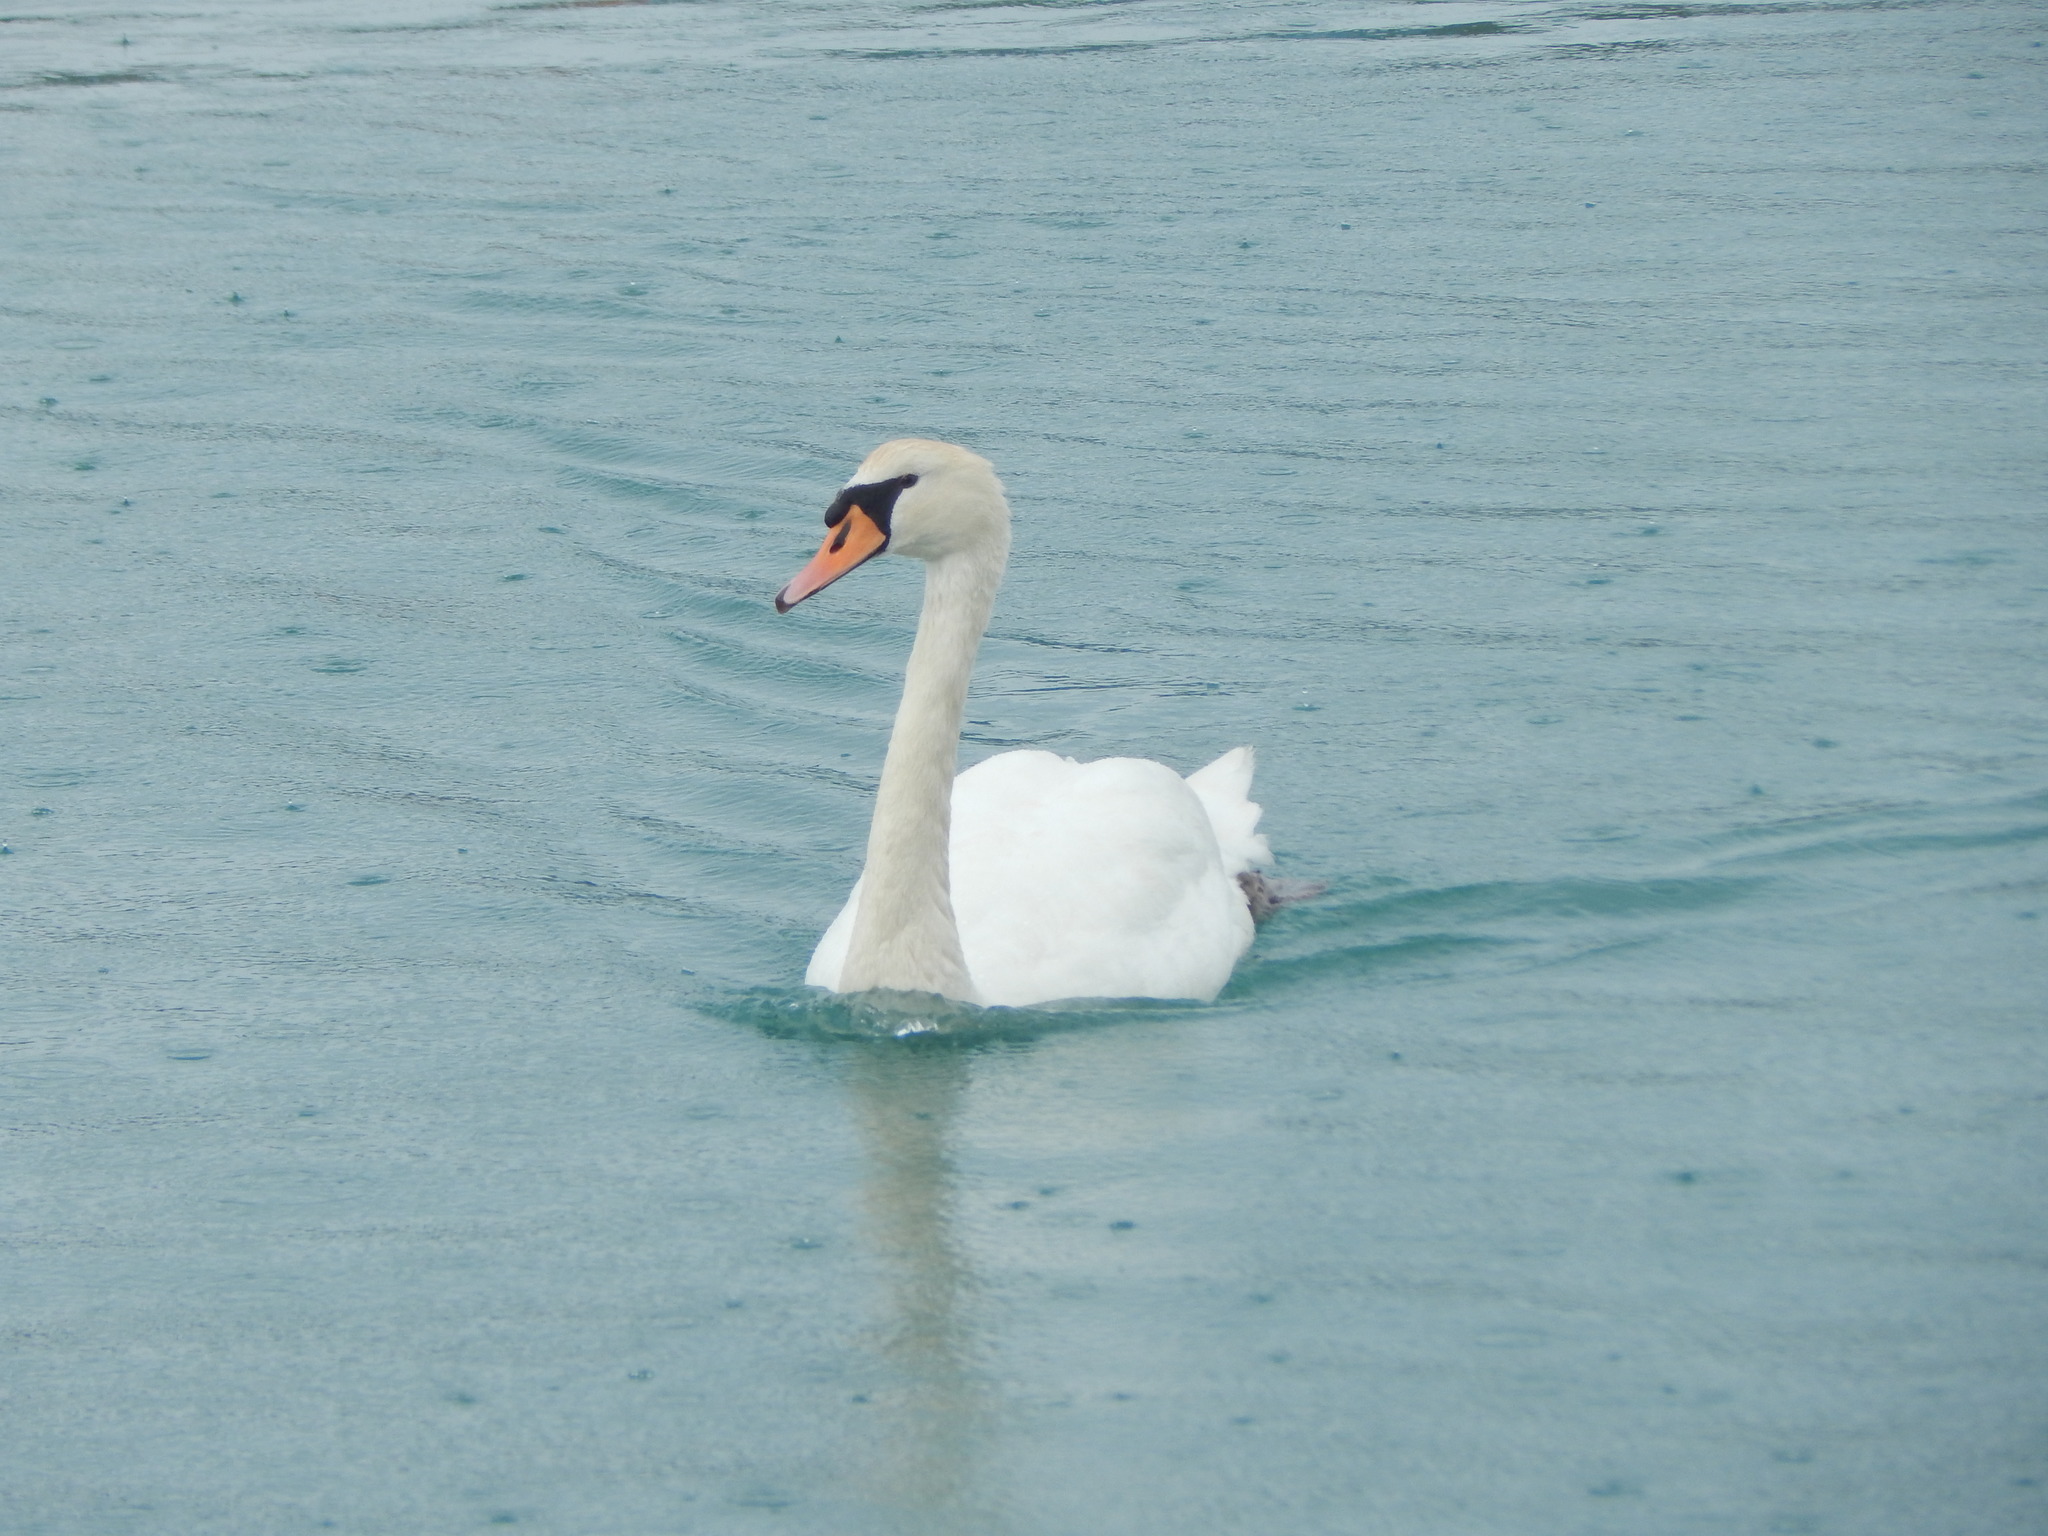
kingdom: Animalia
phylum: Chordata
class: Aves
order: Anseriformes
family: Anatidae
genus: Cygnus
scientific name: Cygnus olor
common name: Mute swan
